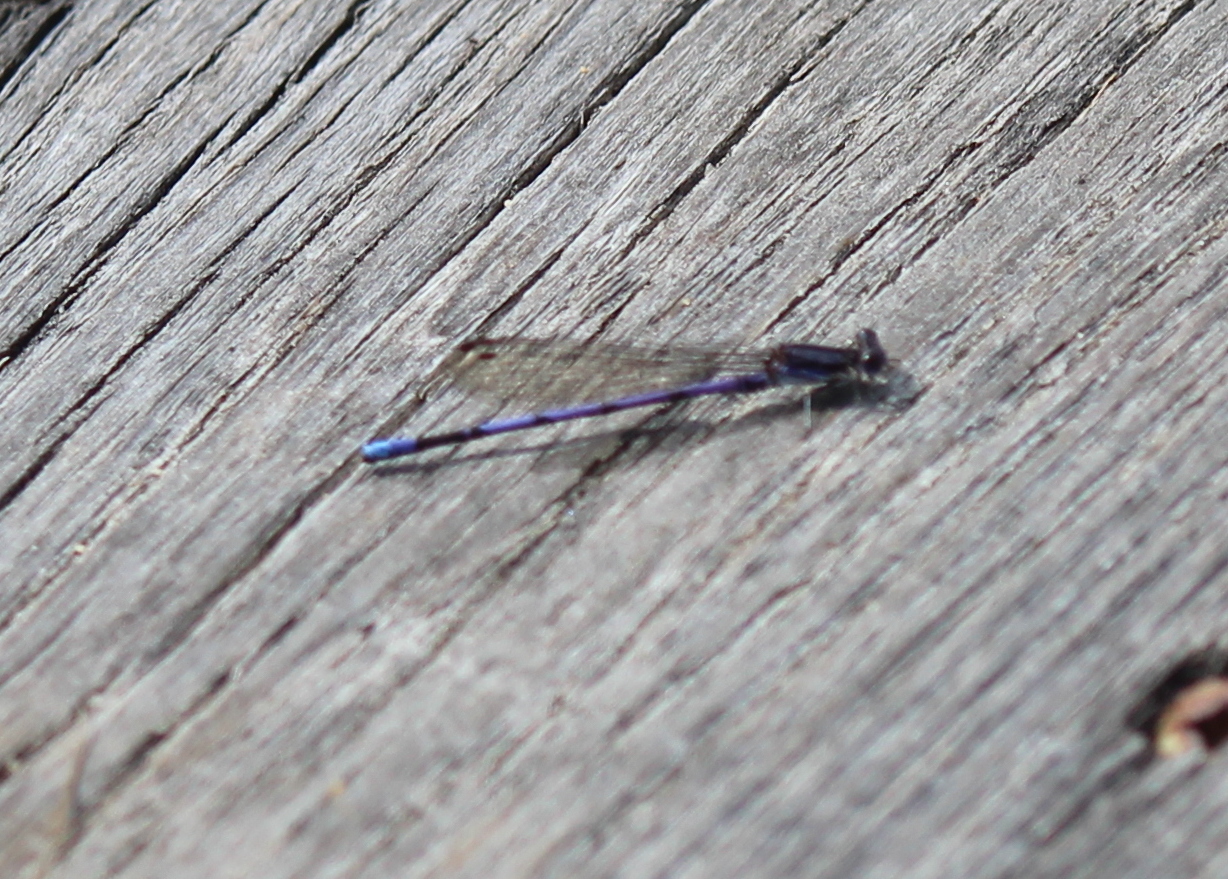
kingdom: Animalia
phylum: Arthropoda
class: Insecta
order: Odonata
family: Coenagrionidae
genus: Argia
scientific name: Argia fumipennis
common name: Variable dancer
